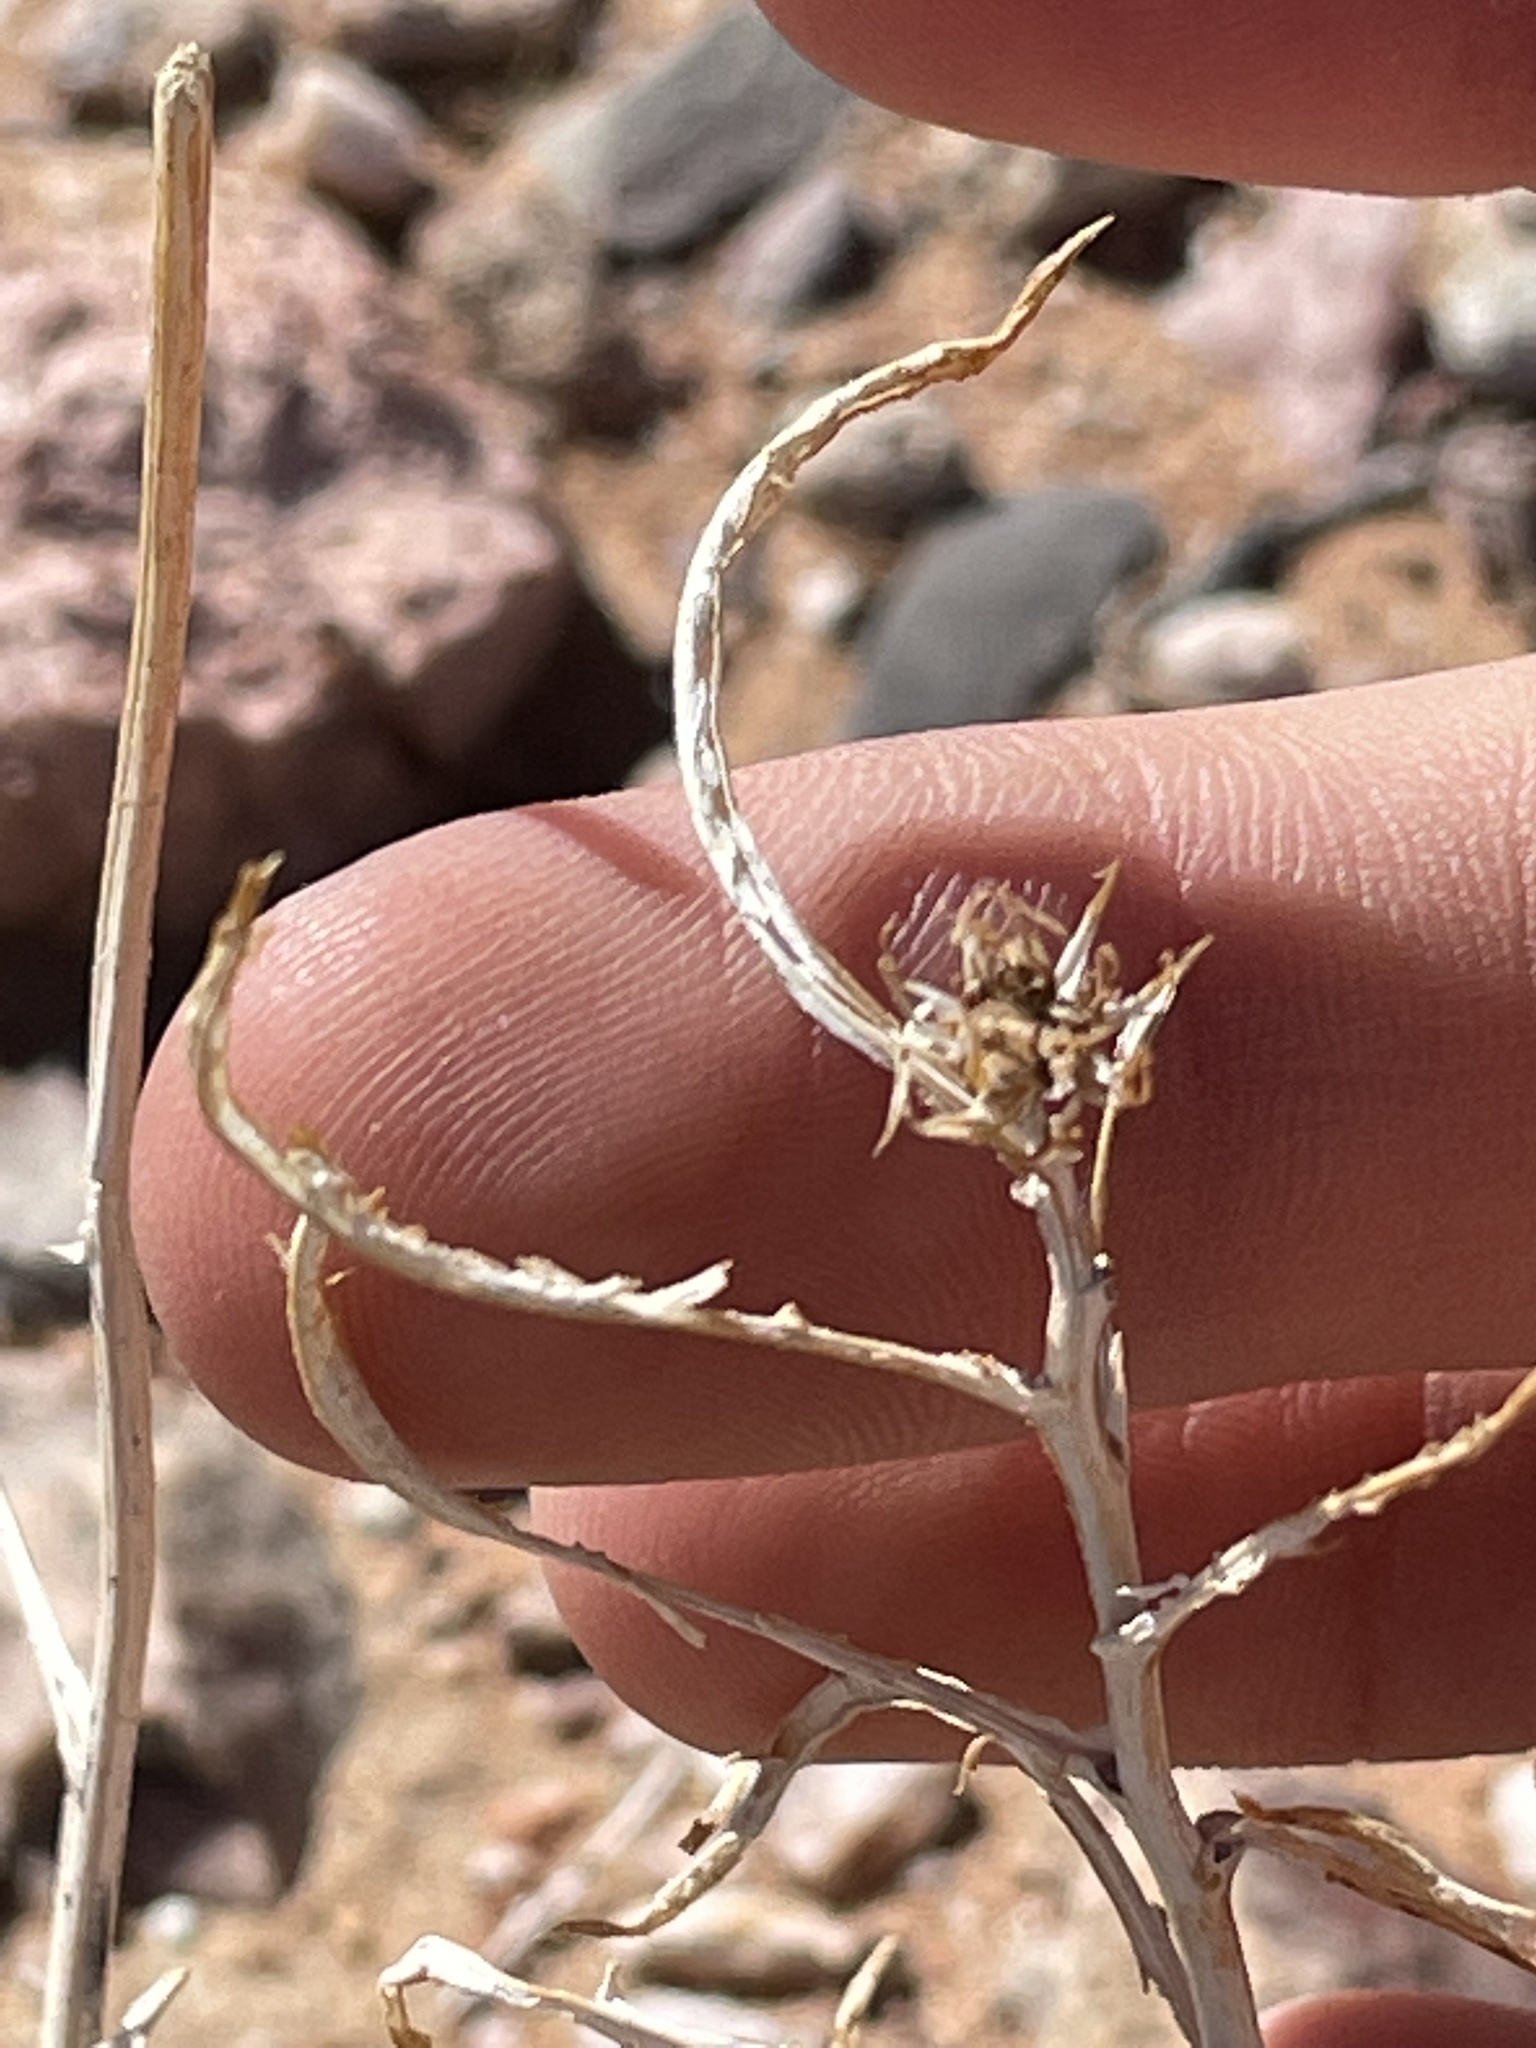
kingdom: Plantae
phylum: Tracheophyta
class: Magnoliopsida
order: Asterales
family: Asteraceae
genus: Xylorhiza
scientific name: Xylorhiza tortifolia
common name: Hurt-leaf woody-aster
